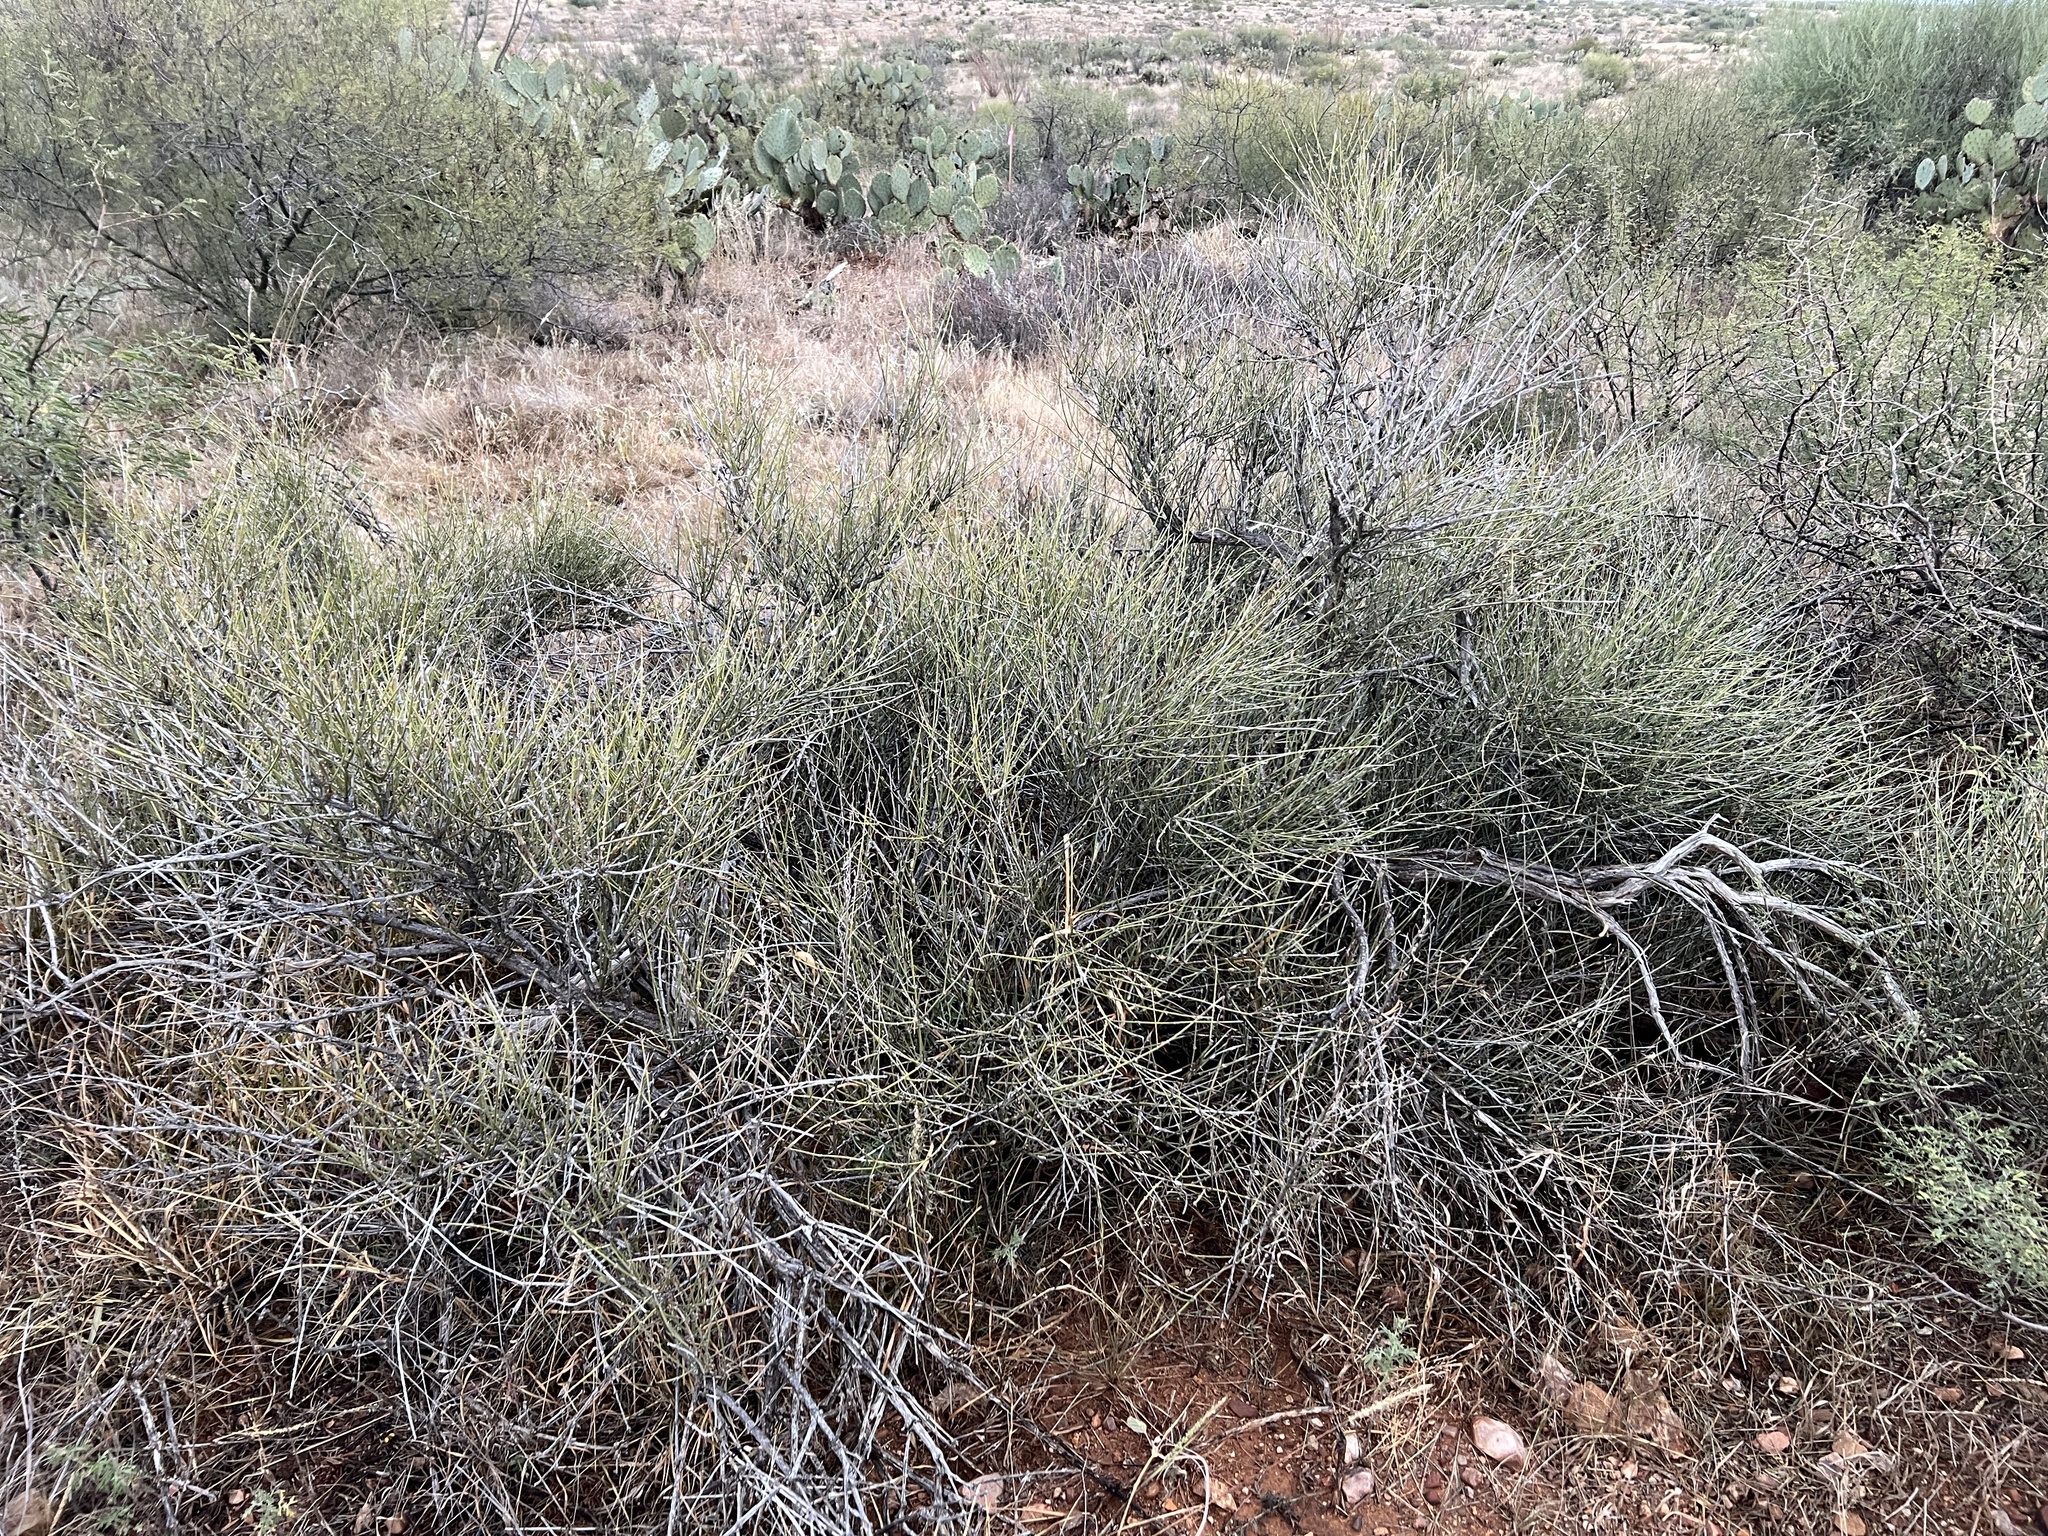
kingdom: Plantae
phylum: Tracheophyta
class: Gnetopsida
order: Ephedrales
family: Ephedraceae
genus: Ephedra
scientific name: Ephedra trifurca
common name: Mexican-tea
